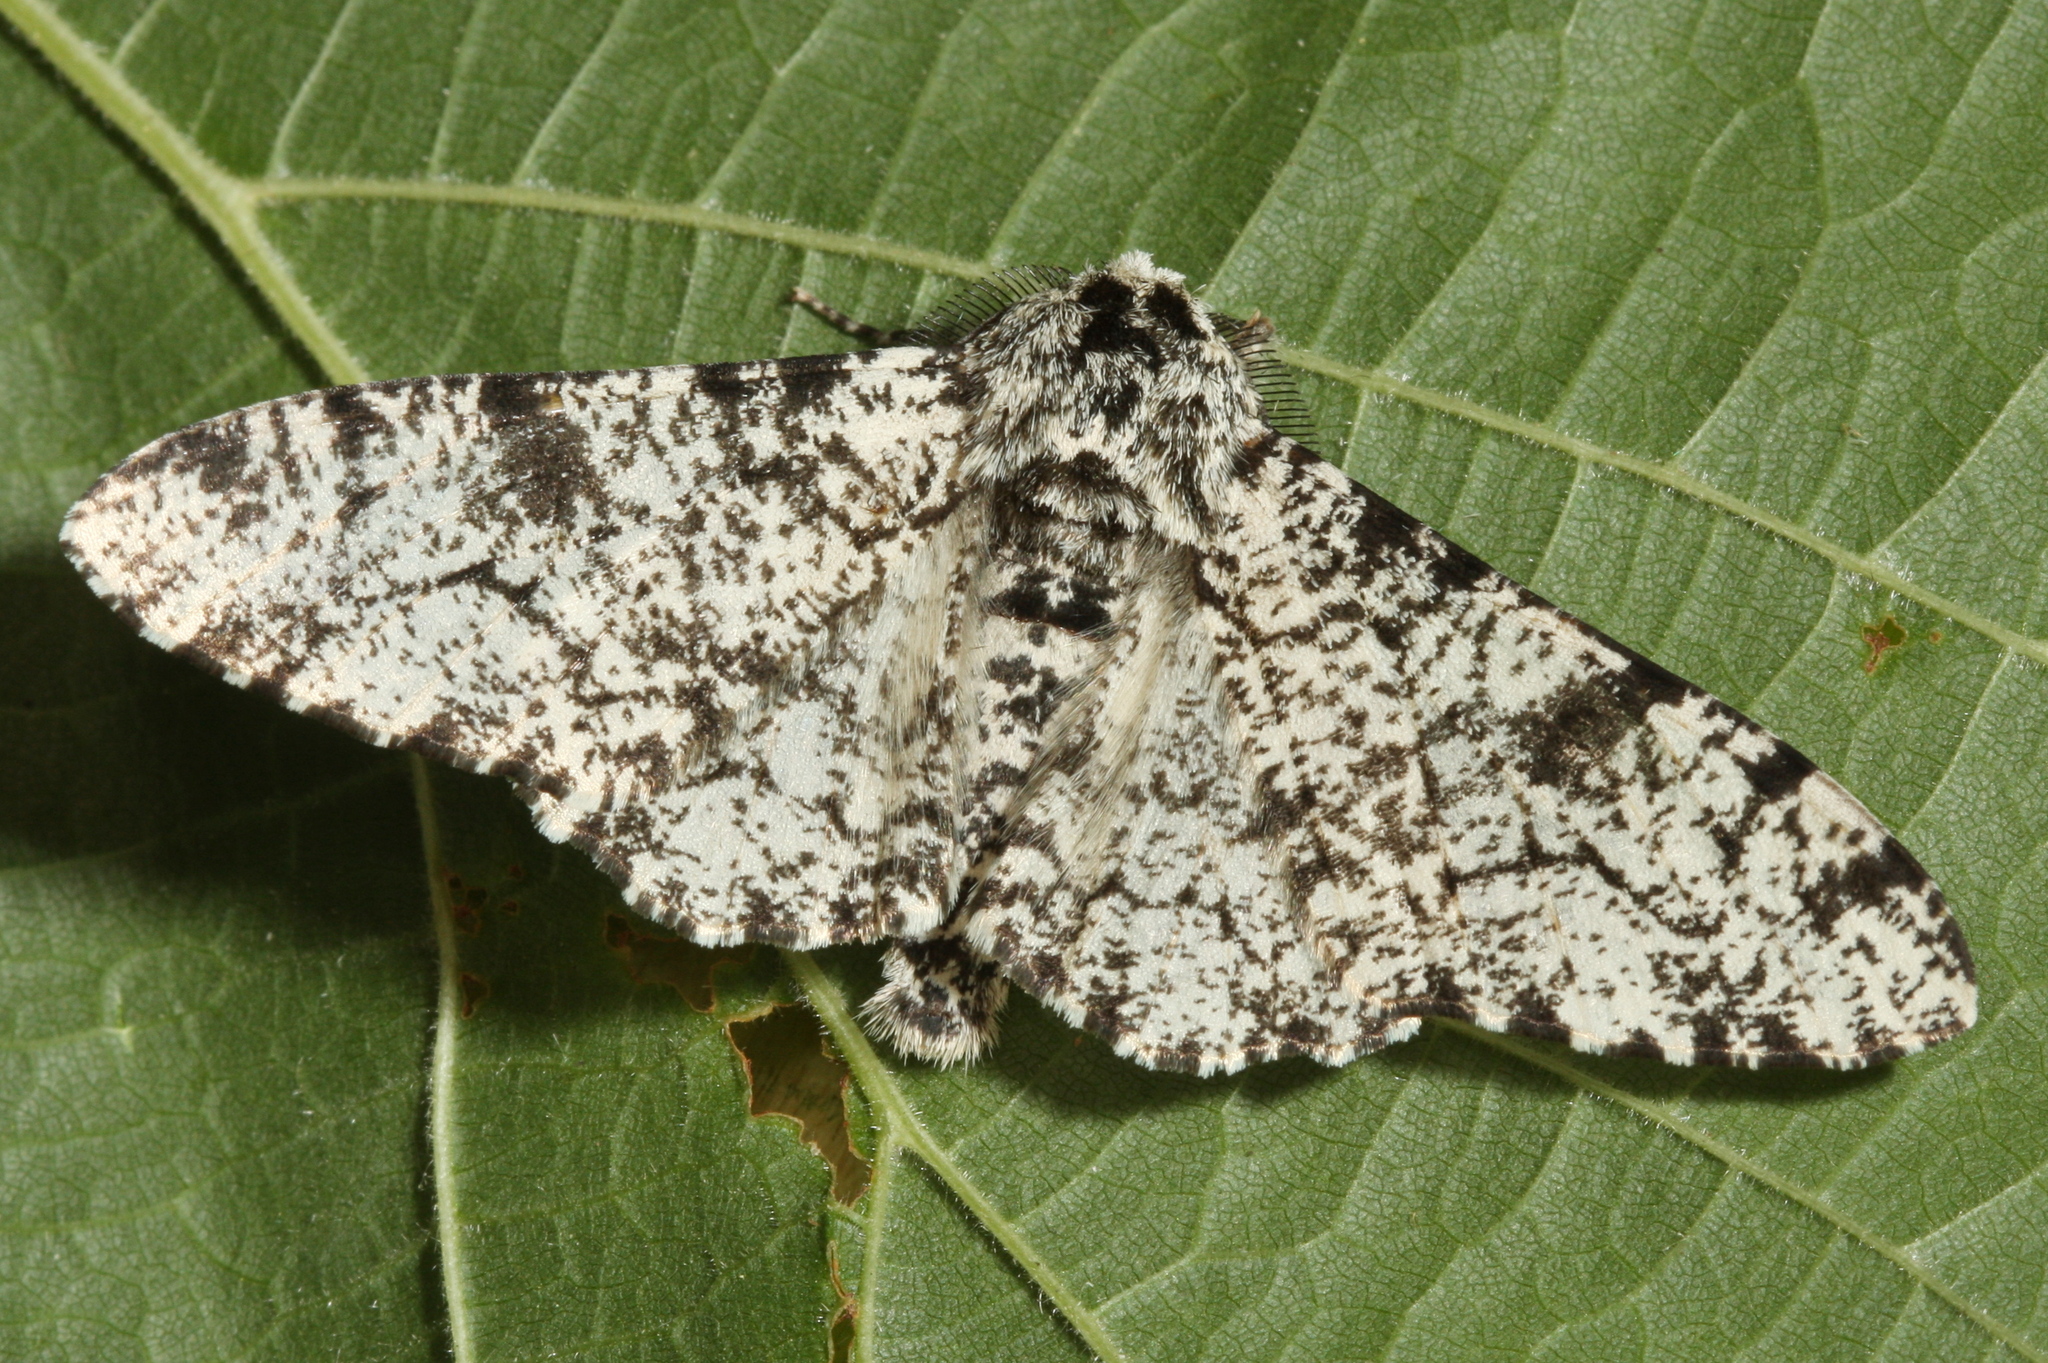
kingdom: Animalia
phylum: Arthropoda
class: Insecta
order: Lepidoptera
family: Geometridae
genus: Biston
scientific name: Biston betularia
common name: Peppered moth
